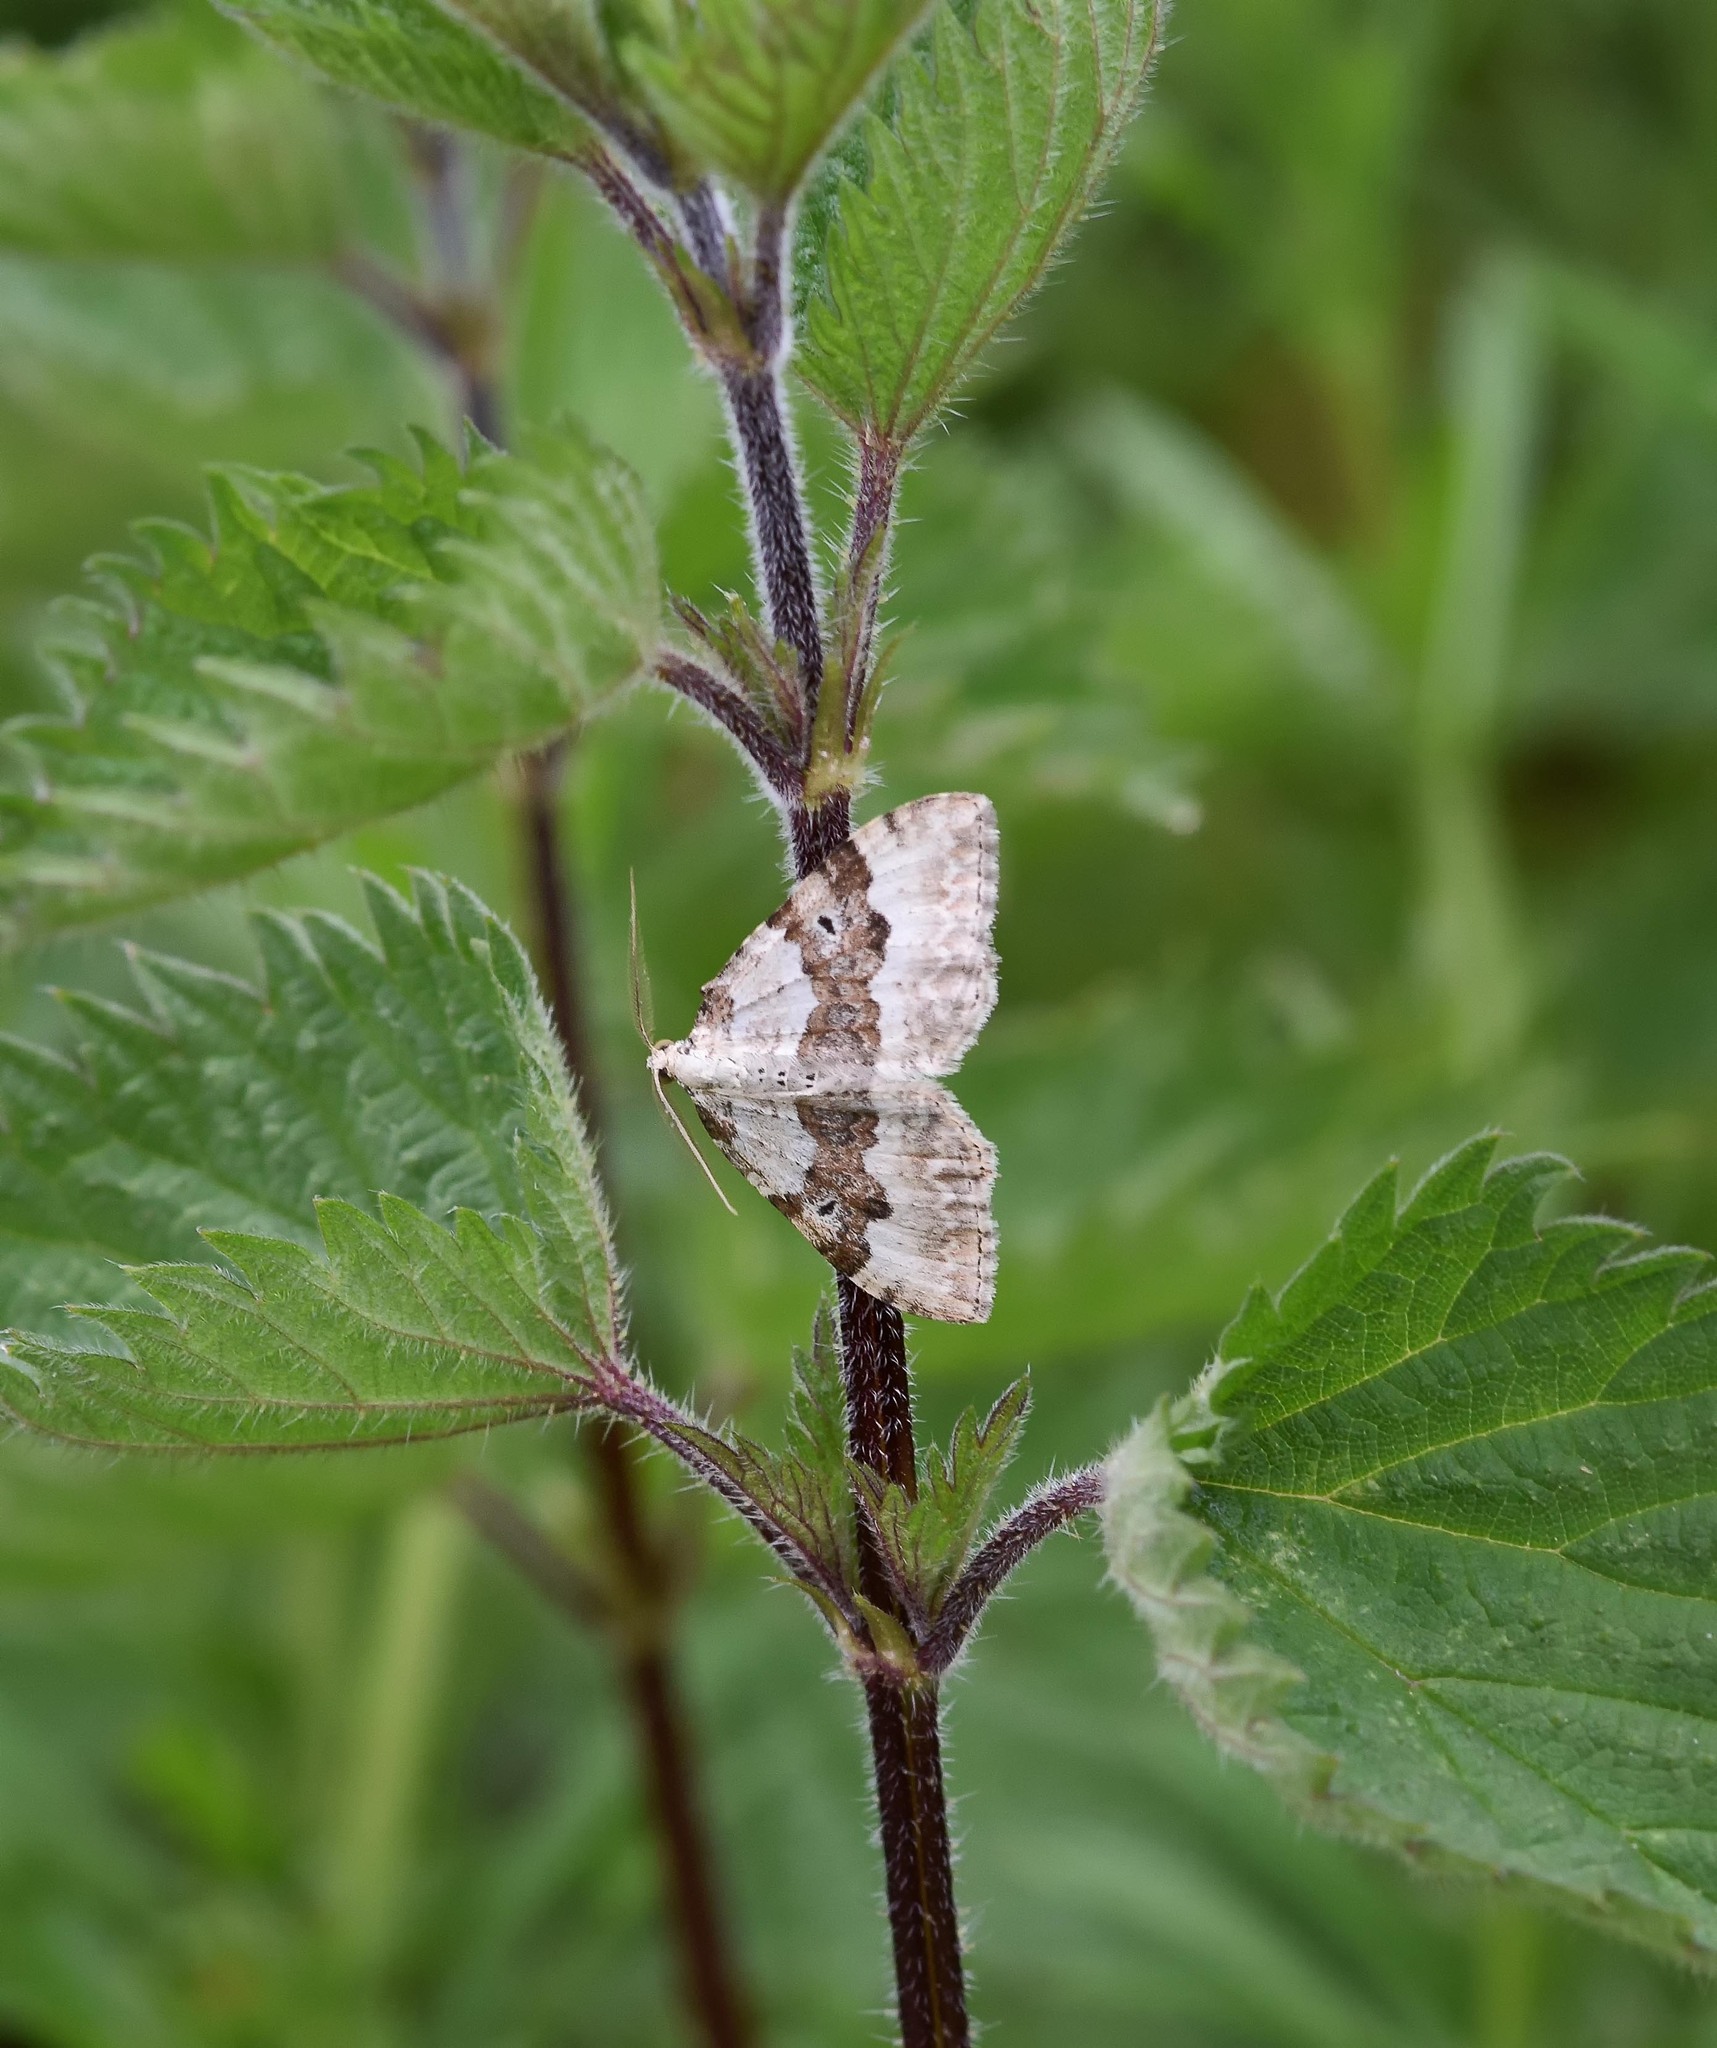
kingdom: Animalia
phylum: Arthropoda
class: Insecta
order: Lepidoptera
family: Geometridae
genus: Xanthorhoe
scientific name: Xanthorhoe montanata
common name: Silver-ground carpet
